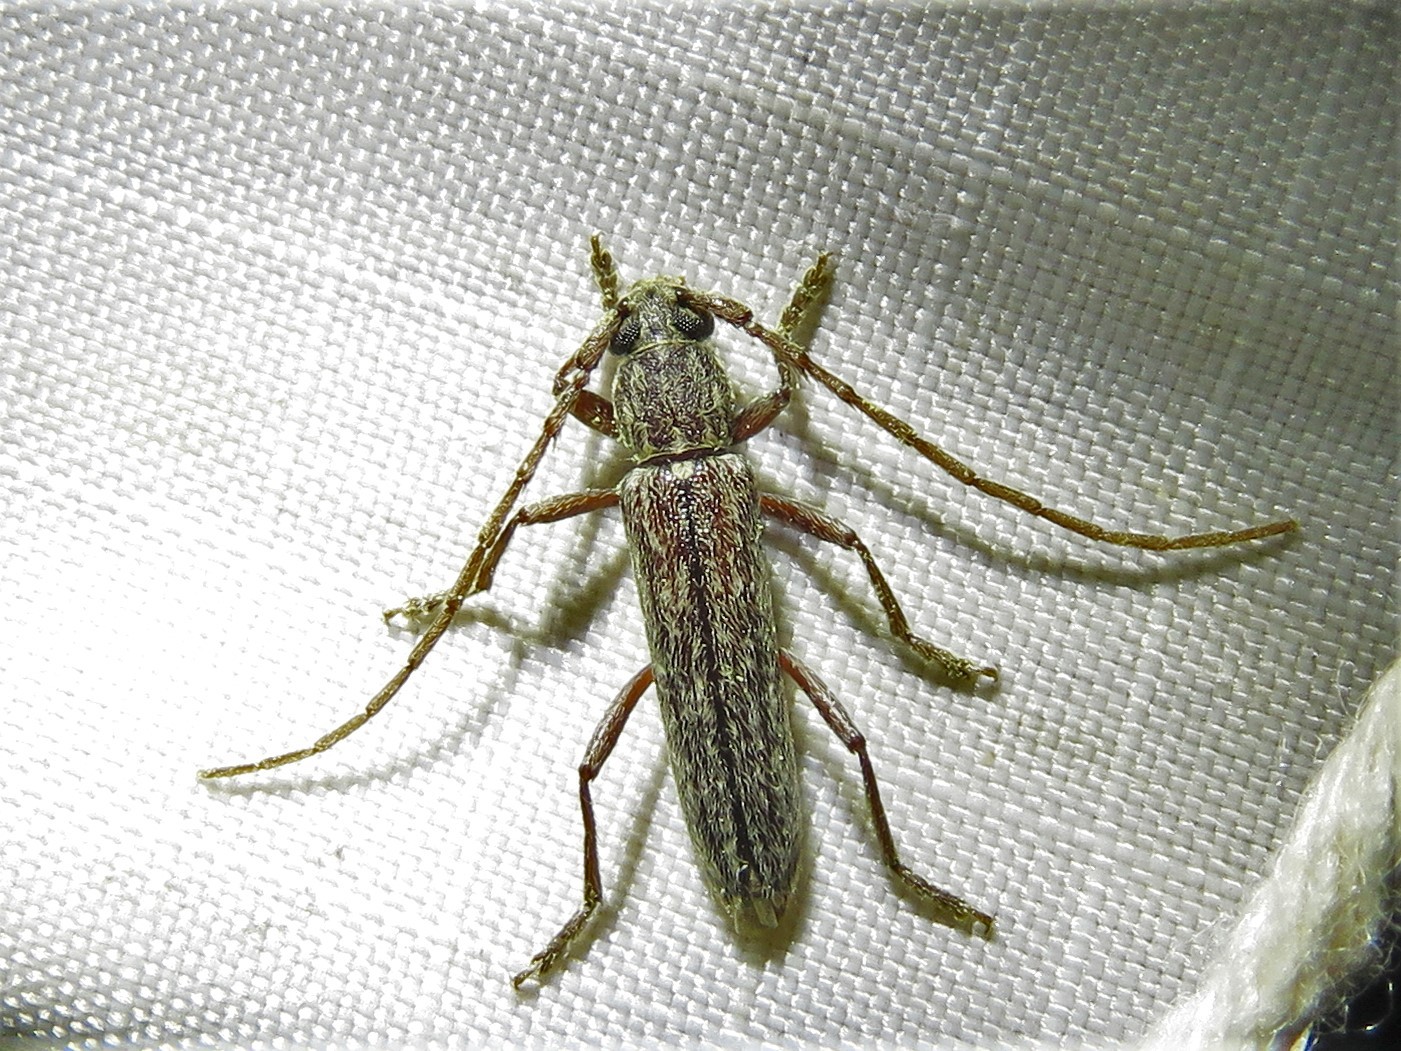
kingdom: Animalia
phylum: Arthropoda
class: Insecta
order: Coleoptera
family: Cerambycidae
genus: Anelaphus
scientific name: Anelaphus villosus
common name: Twig pruner
